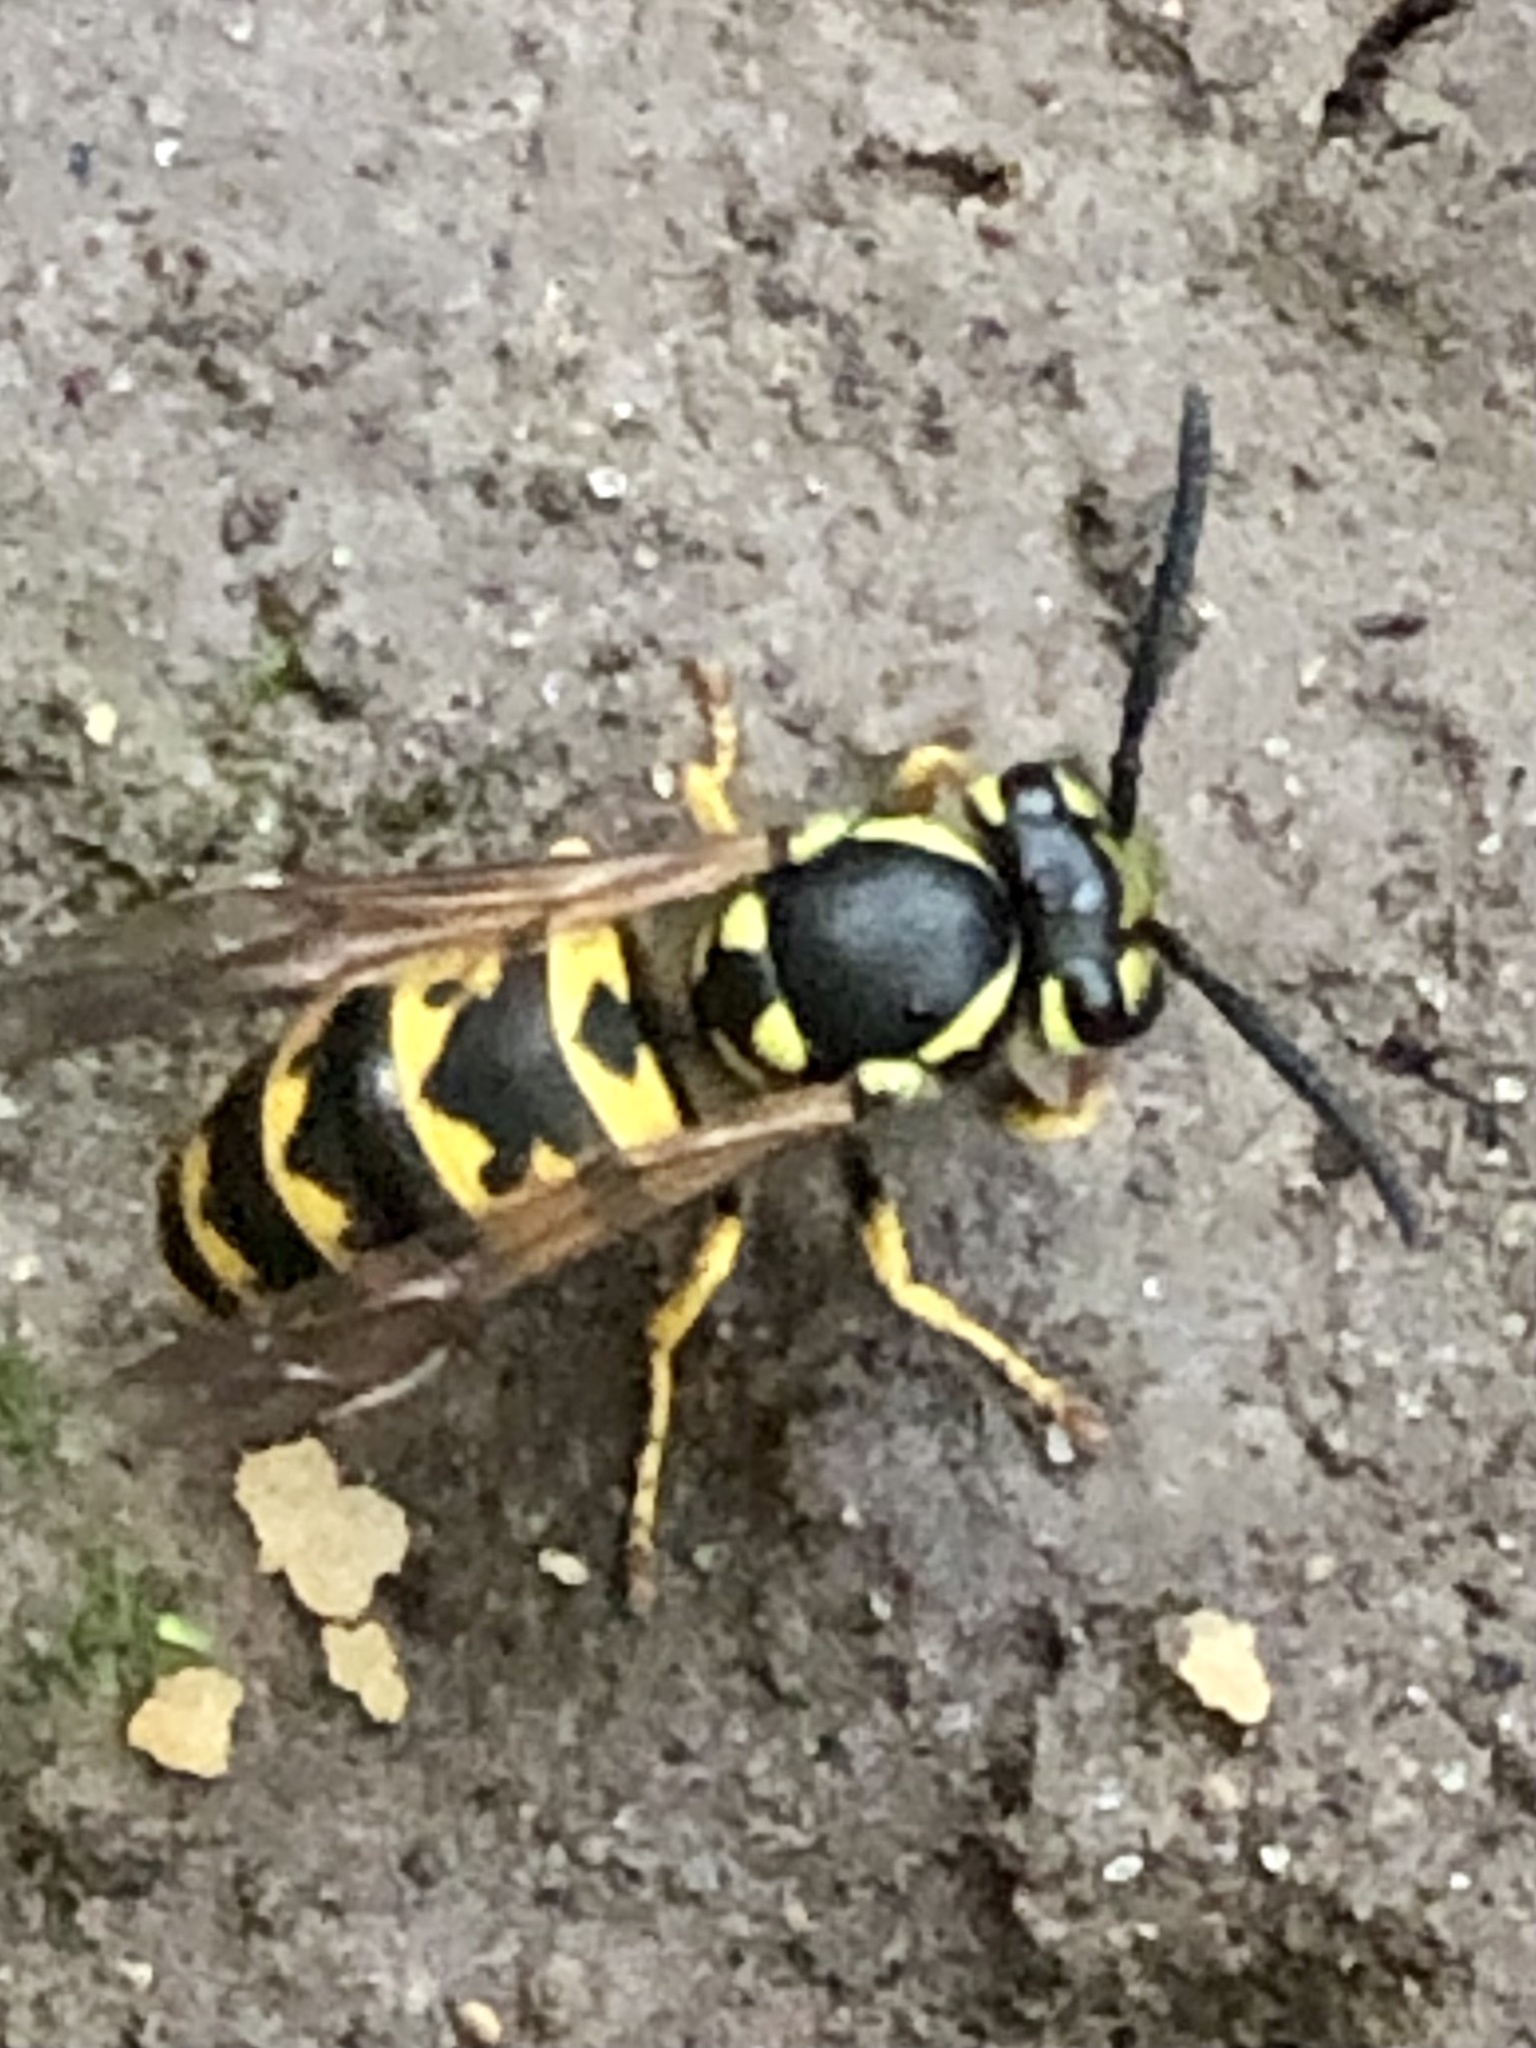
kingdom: Animalia
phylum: Arthropoda
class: Insecta
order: Hymenoptera
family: Vespidae
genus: Vespula
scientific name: Vespula germanica
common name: German wasp
